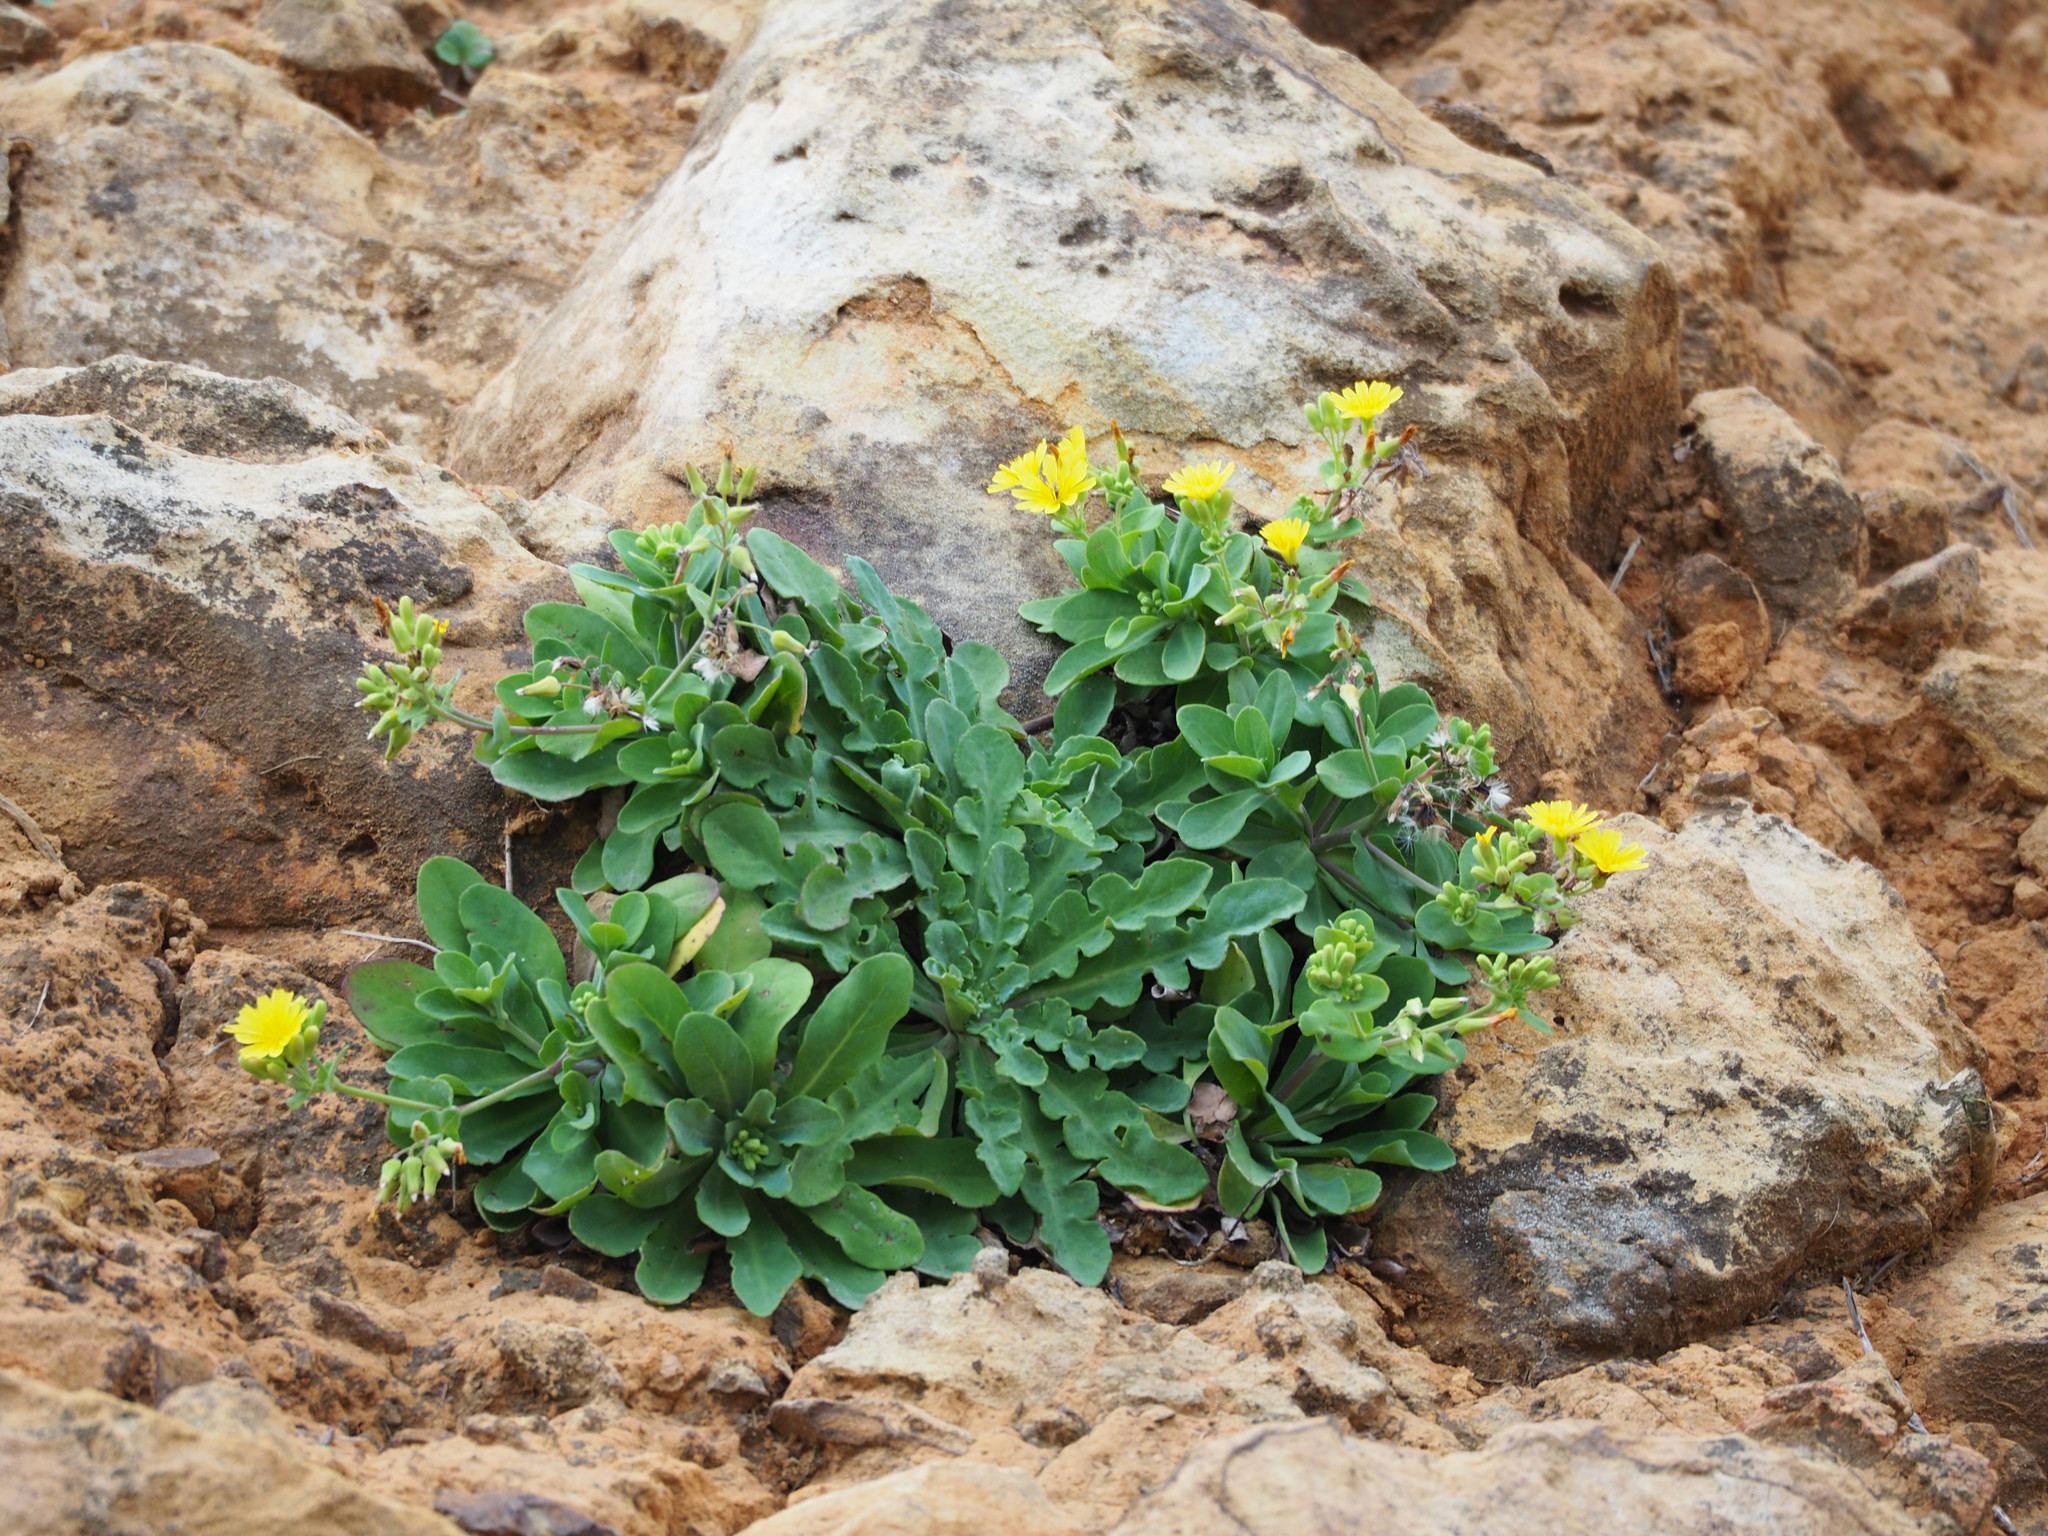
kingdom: Plantae
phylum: Tracheophyta
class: Magnoliopsida
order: Asterales
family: Asteraceae
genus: Crepidiastrum
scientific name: Crepidiastrum taiwanianum
